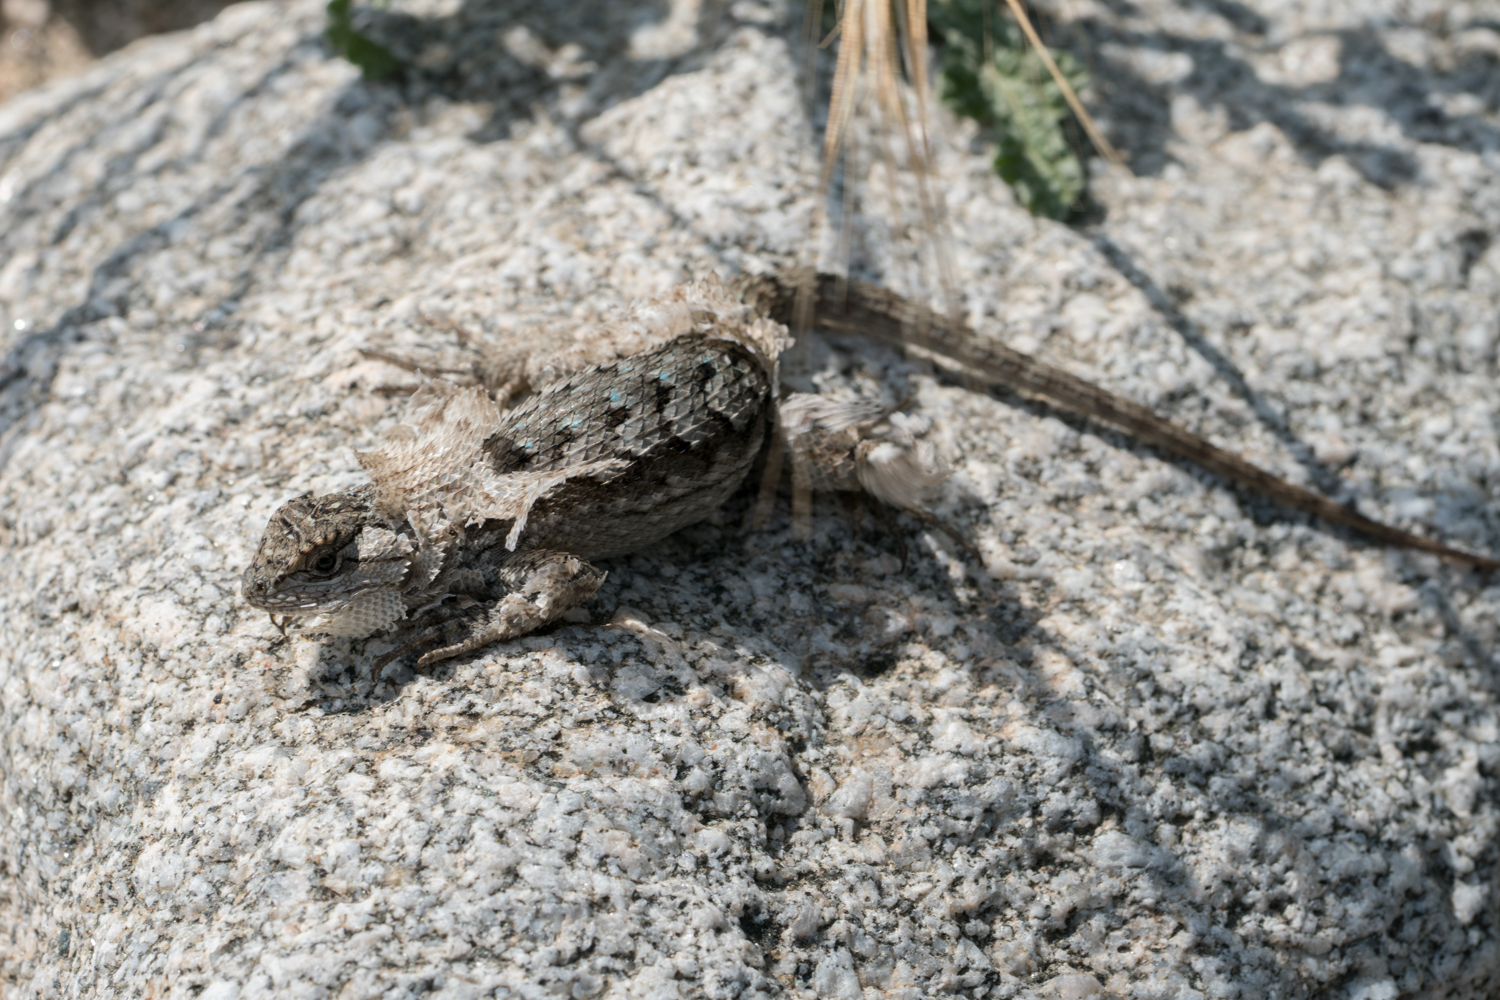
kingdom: Animalia
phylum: Chordata
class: Squamata
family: Phrynosomatidae
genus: Sceloporus
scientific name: Sceloporus occidentalis
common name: Western fence lizard
